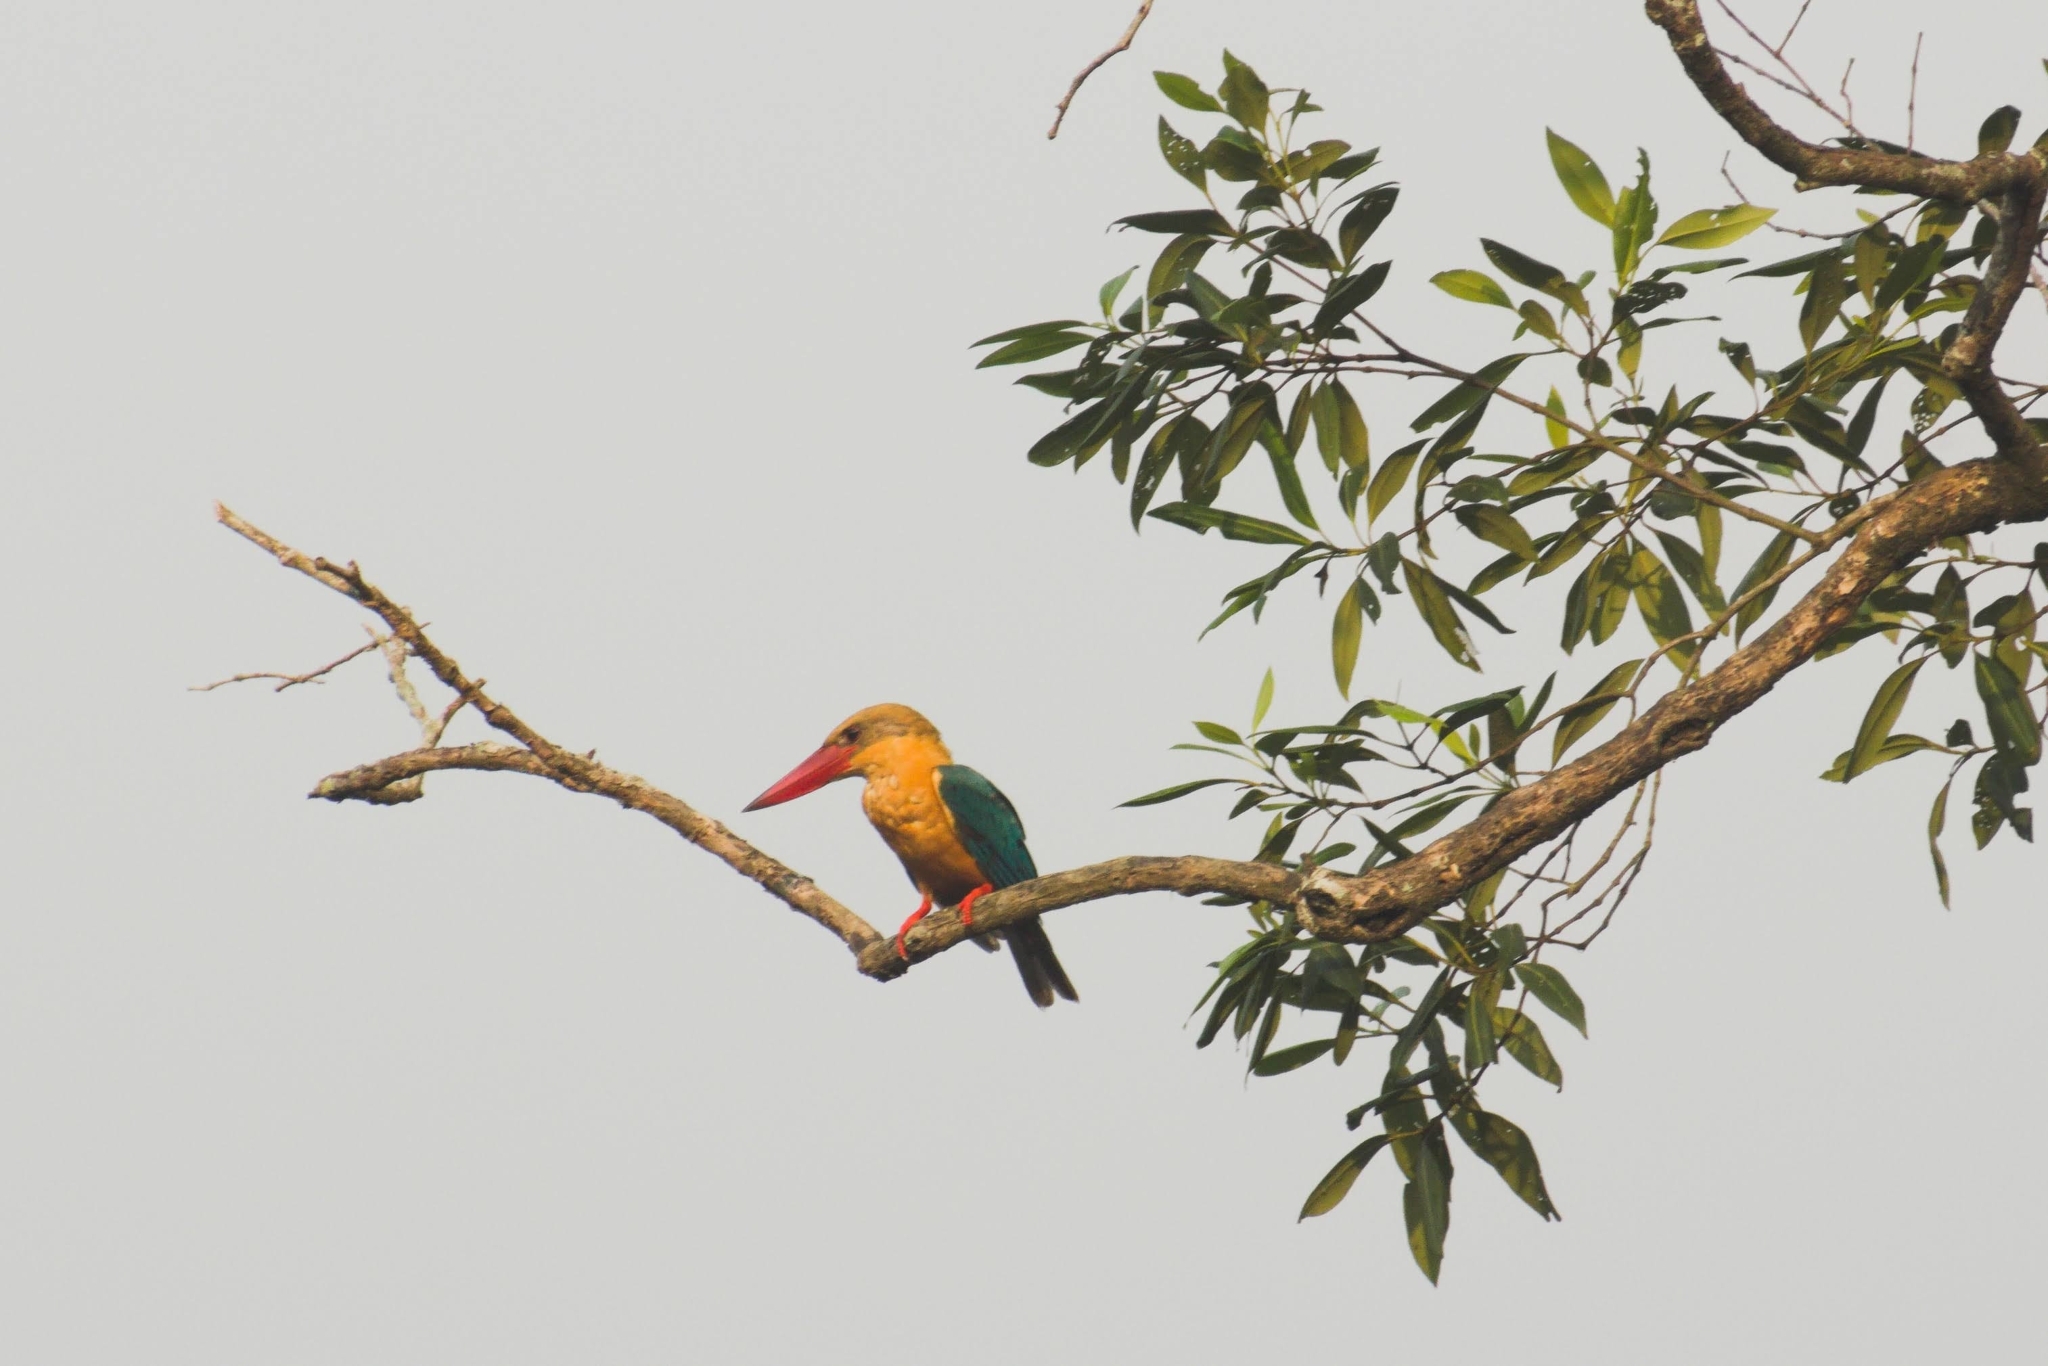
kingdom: Animalia
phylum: Chordata
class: Aves
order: Coraciiformes
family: Alcedinidae
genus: Pelargopsis
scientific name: Pelargopsis capensis
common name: Stork-billed kingfisher
